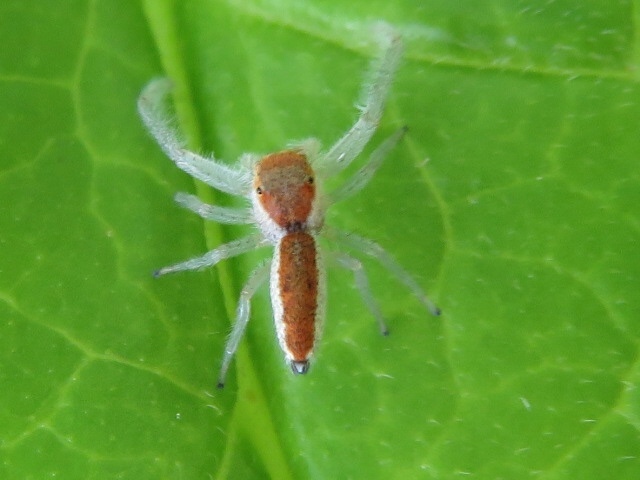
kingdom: Animalia
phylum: Arthropoda
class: Arachnida
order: Araneae
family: Salticidae
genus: Hentzia
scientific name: Hentzia mitrata
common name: White-jawed jumping spider
